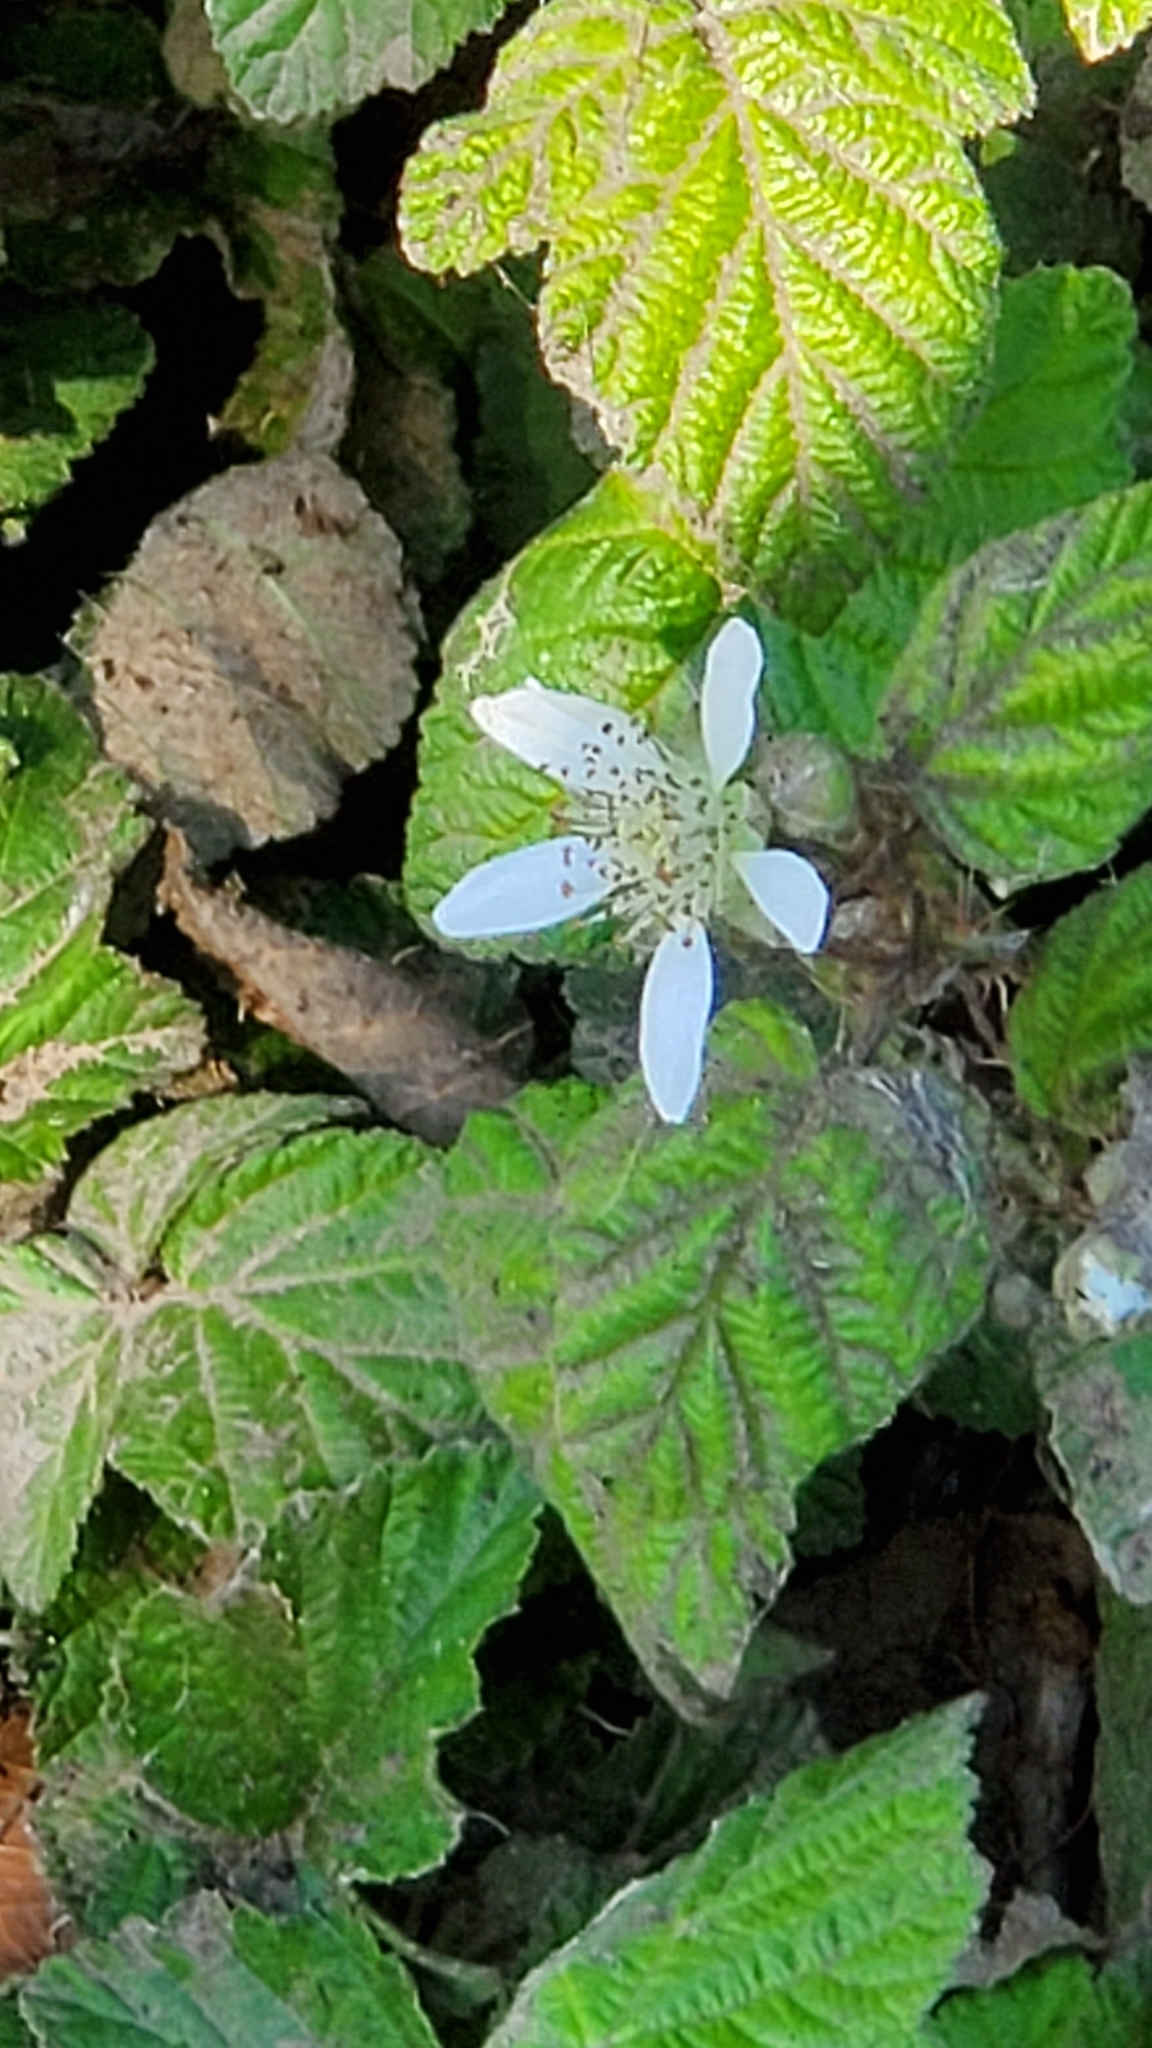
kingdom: Plantae
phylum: Tracheophyta
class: Magnoliopsida
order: Rosales
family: Rosaceae
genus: Rubus
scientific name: Rubus ursinus
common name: Pacific blackberry
